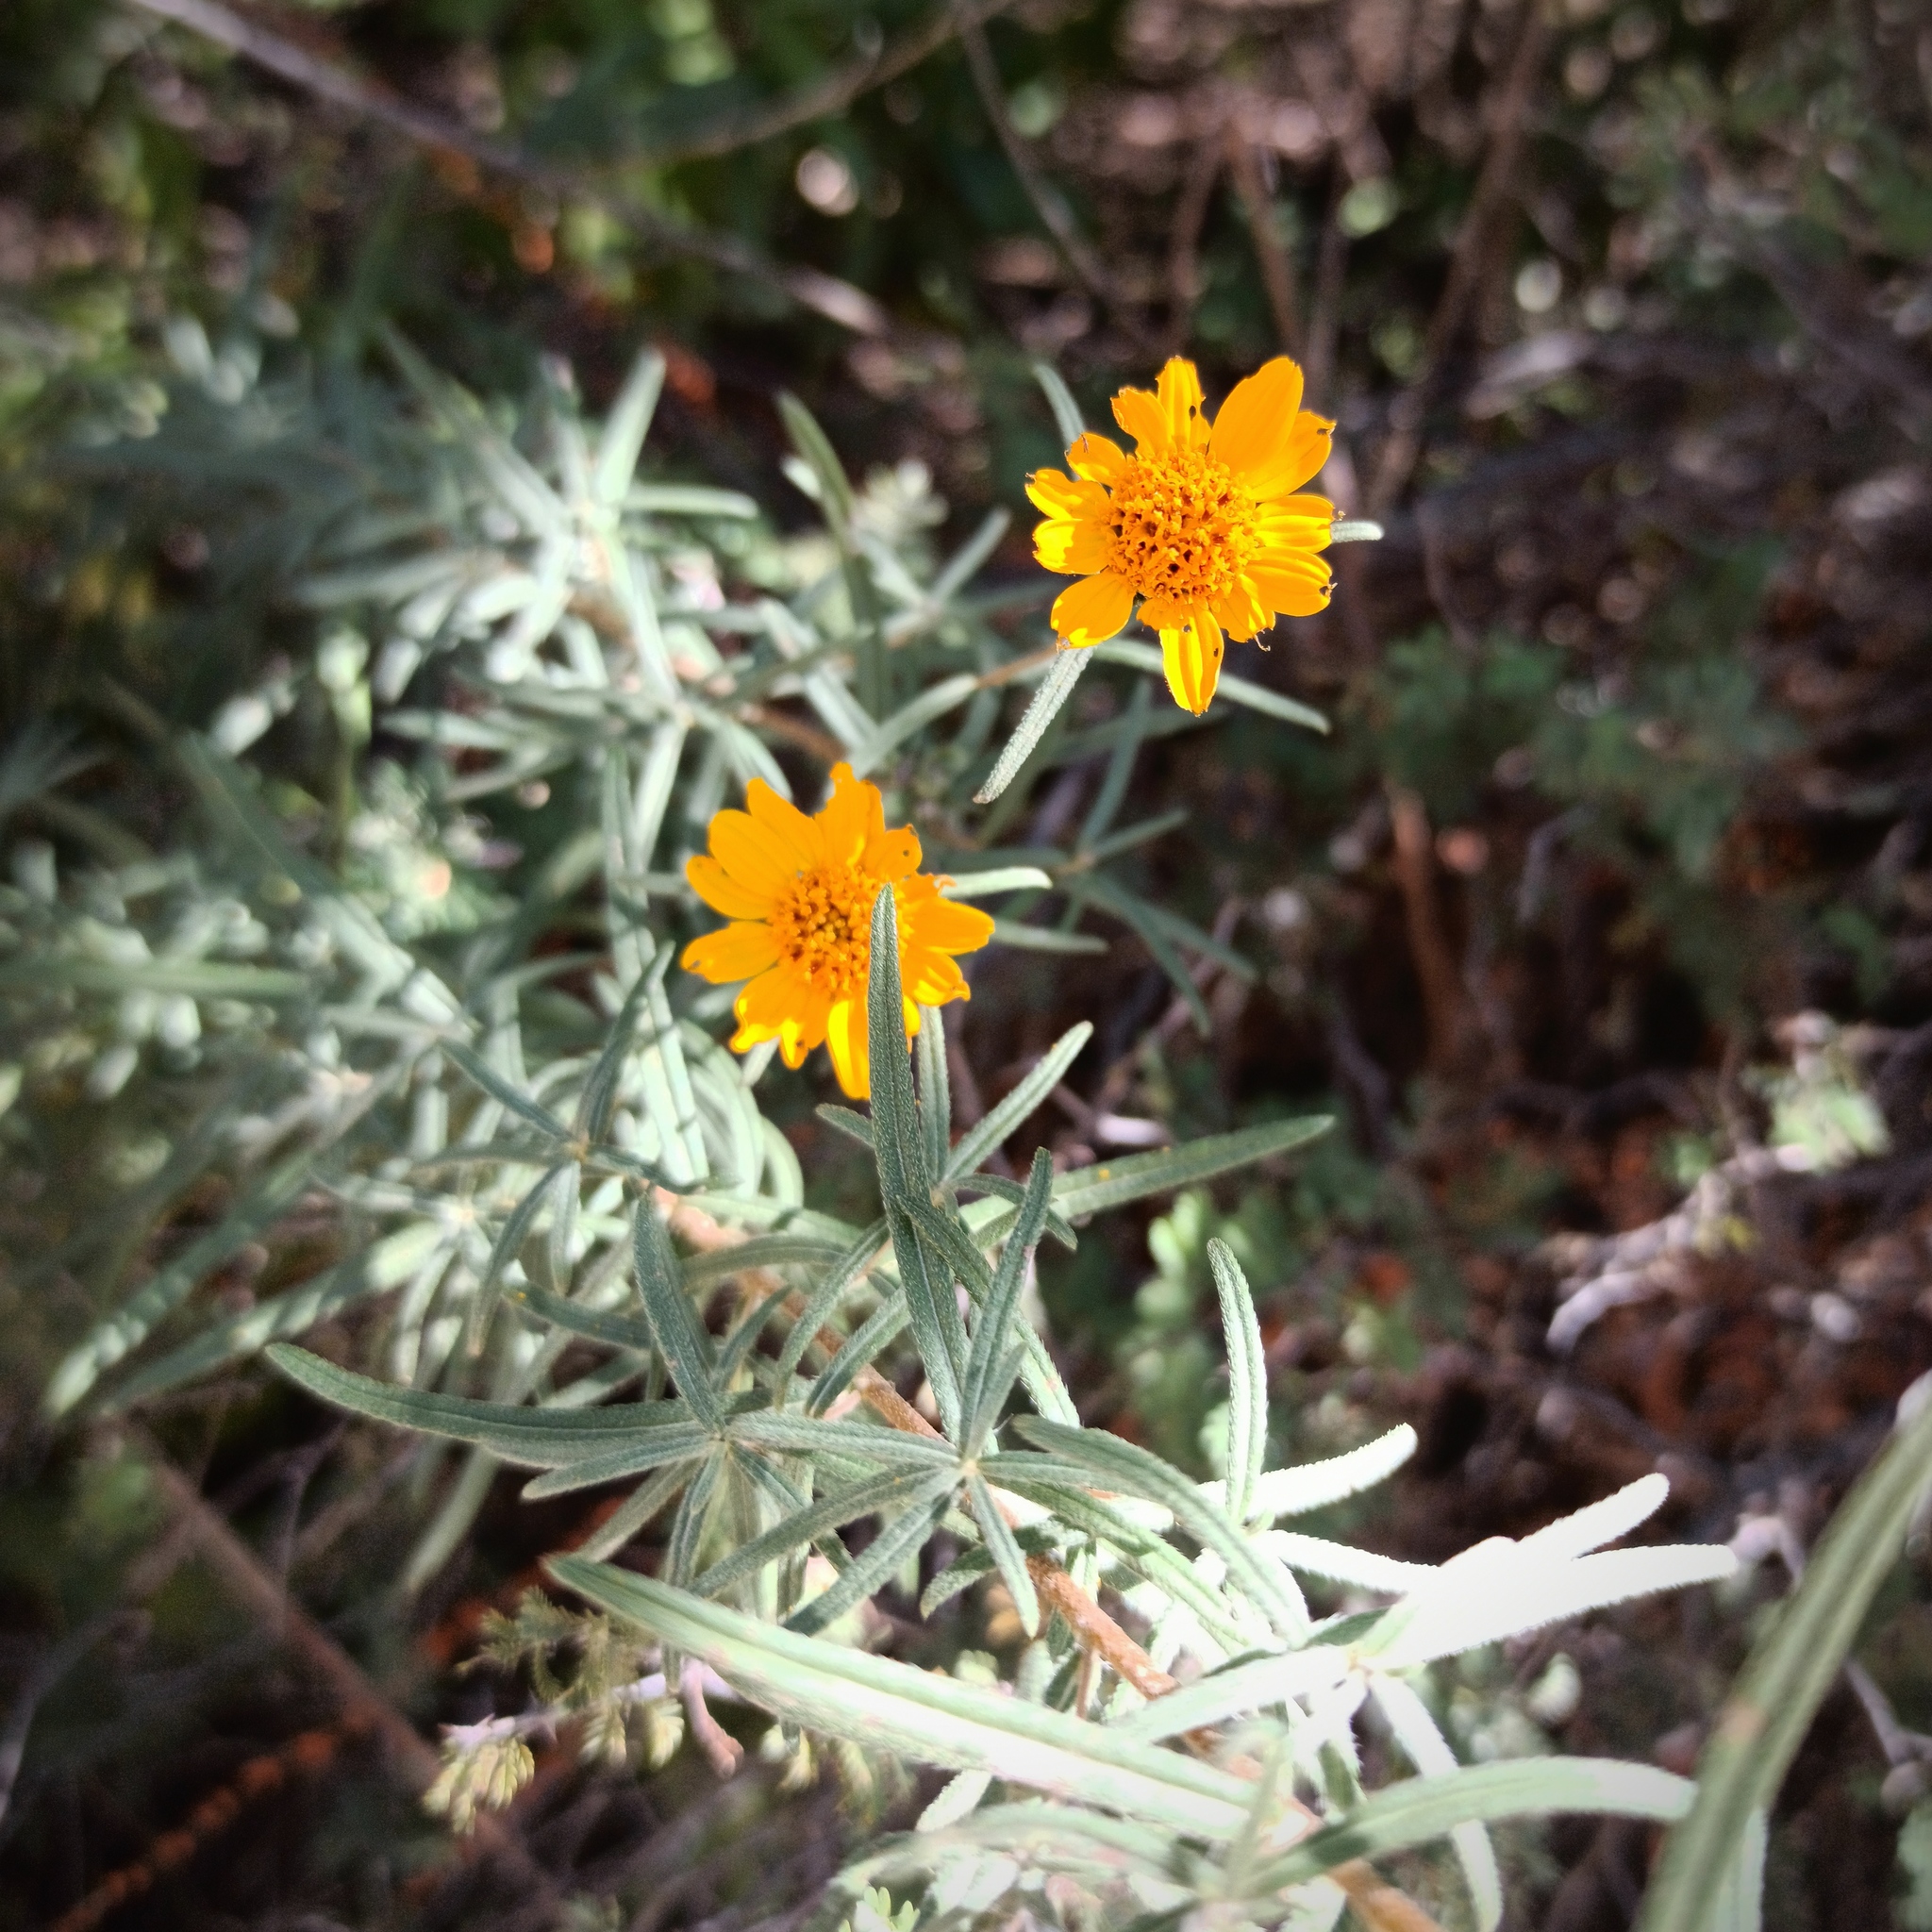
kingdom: Plantae
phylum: Tracheophyta
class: Magnoliopsida
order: Asterales
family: Asteraceae
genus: Aldama
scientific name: Aldama linearis
